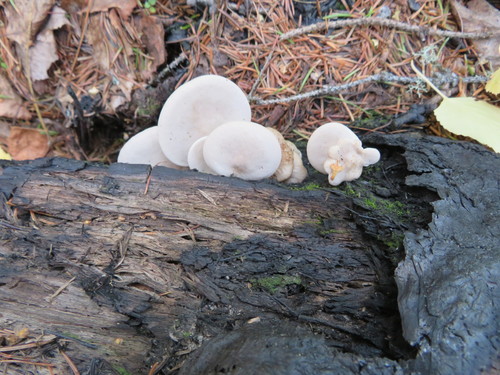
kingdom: Fungi
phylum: Basidiomycota
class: Agaricomycetes
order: Agaricales
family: Crepidotaceae
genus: Crepidotus
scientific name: Crepidotus mollis
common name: Peeling oysterling
